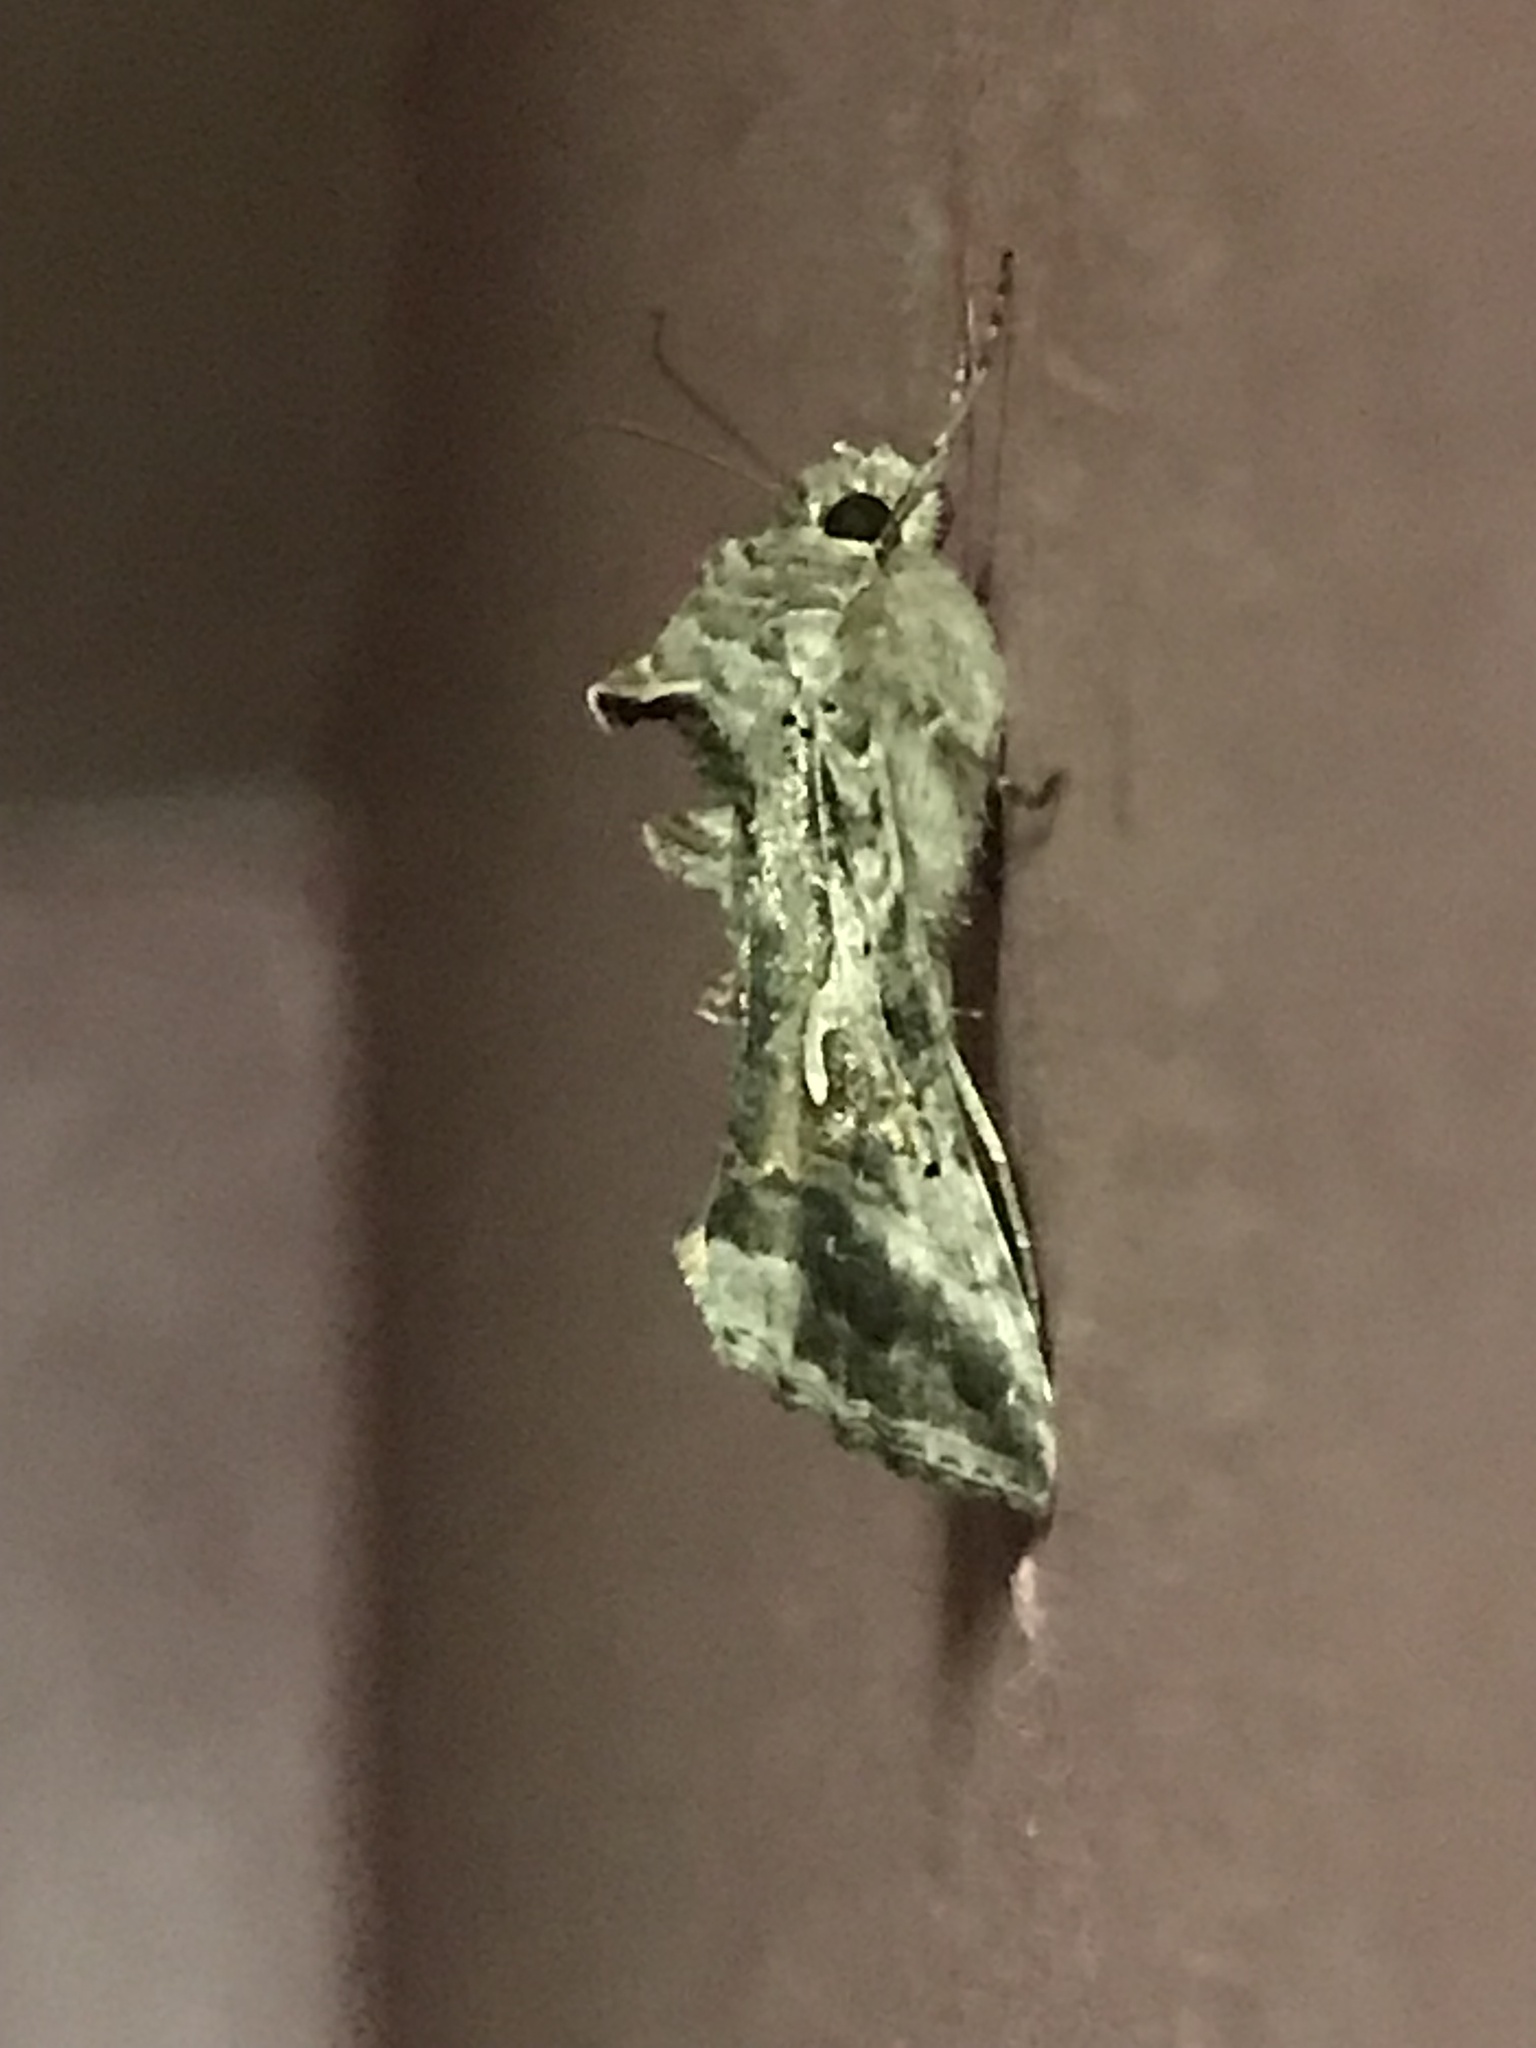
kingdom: Animalia
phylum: Arthropoda
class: Insecta
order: Lepidoptera
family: Noctuidae
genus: Autographa
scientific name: Autographa gamma
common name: Silver y
